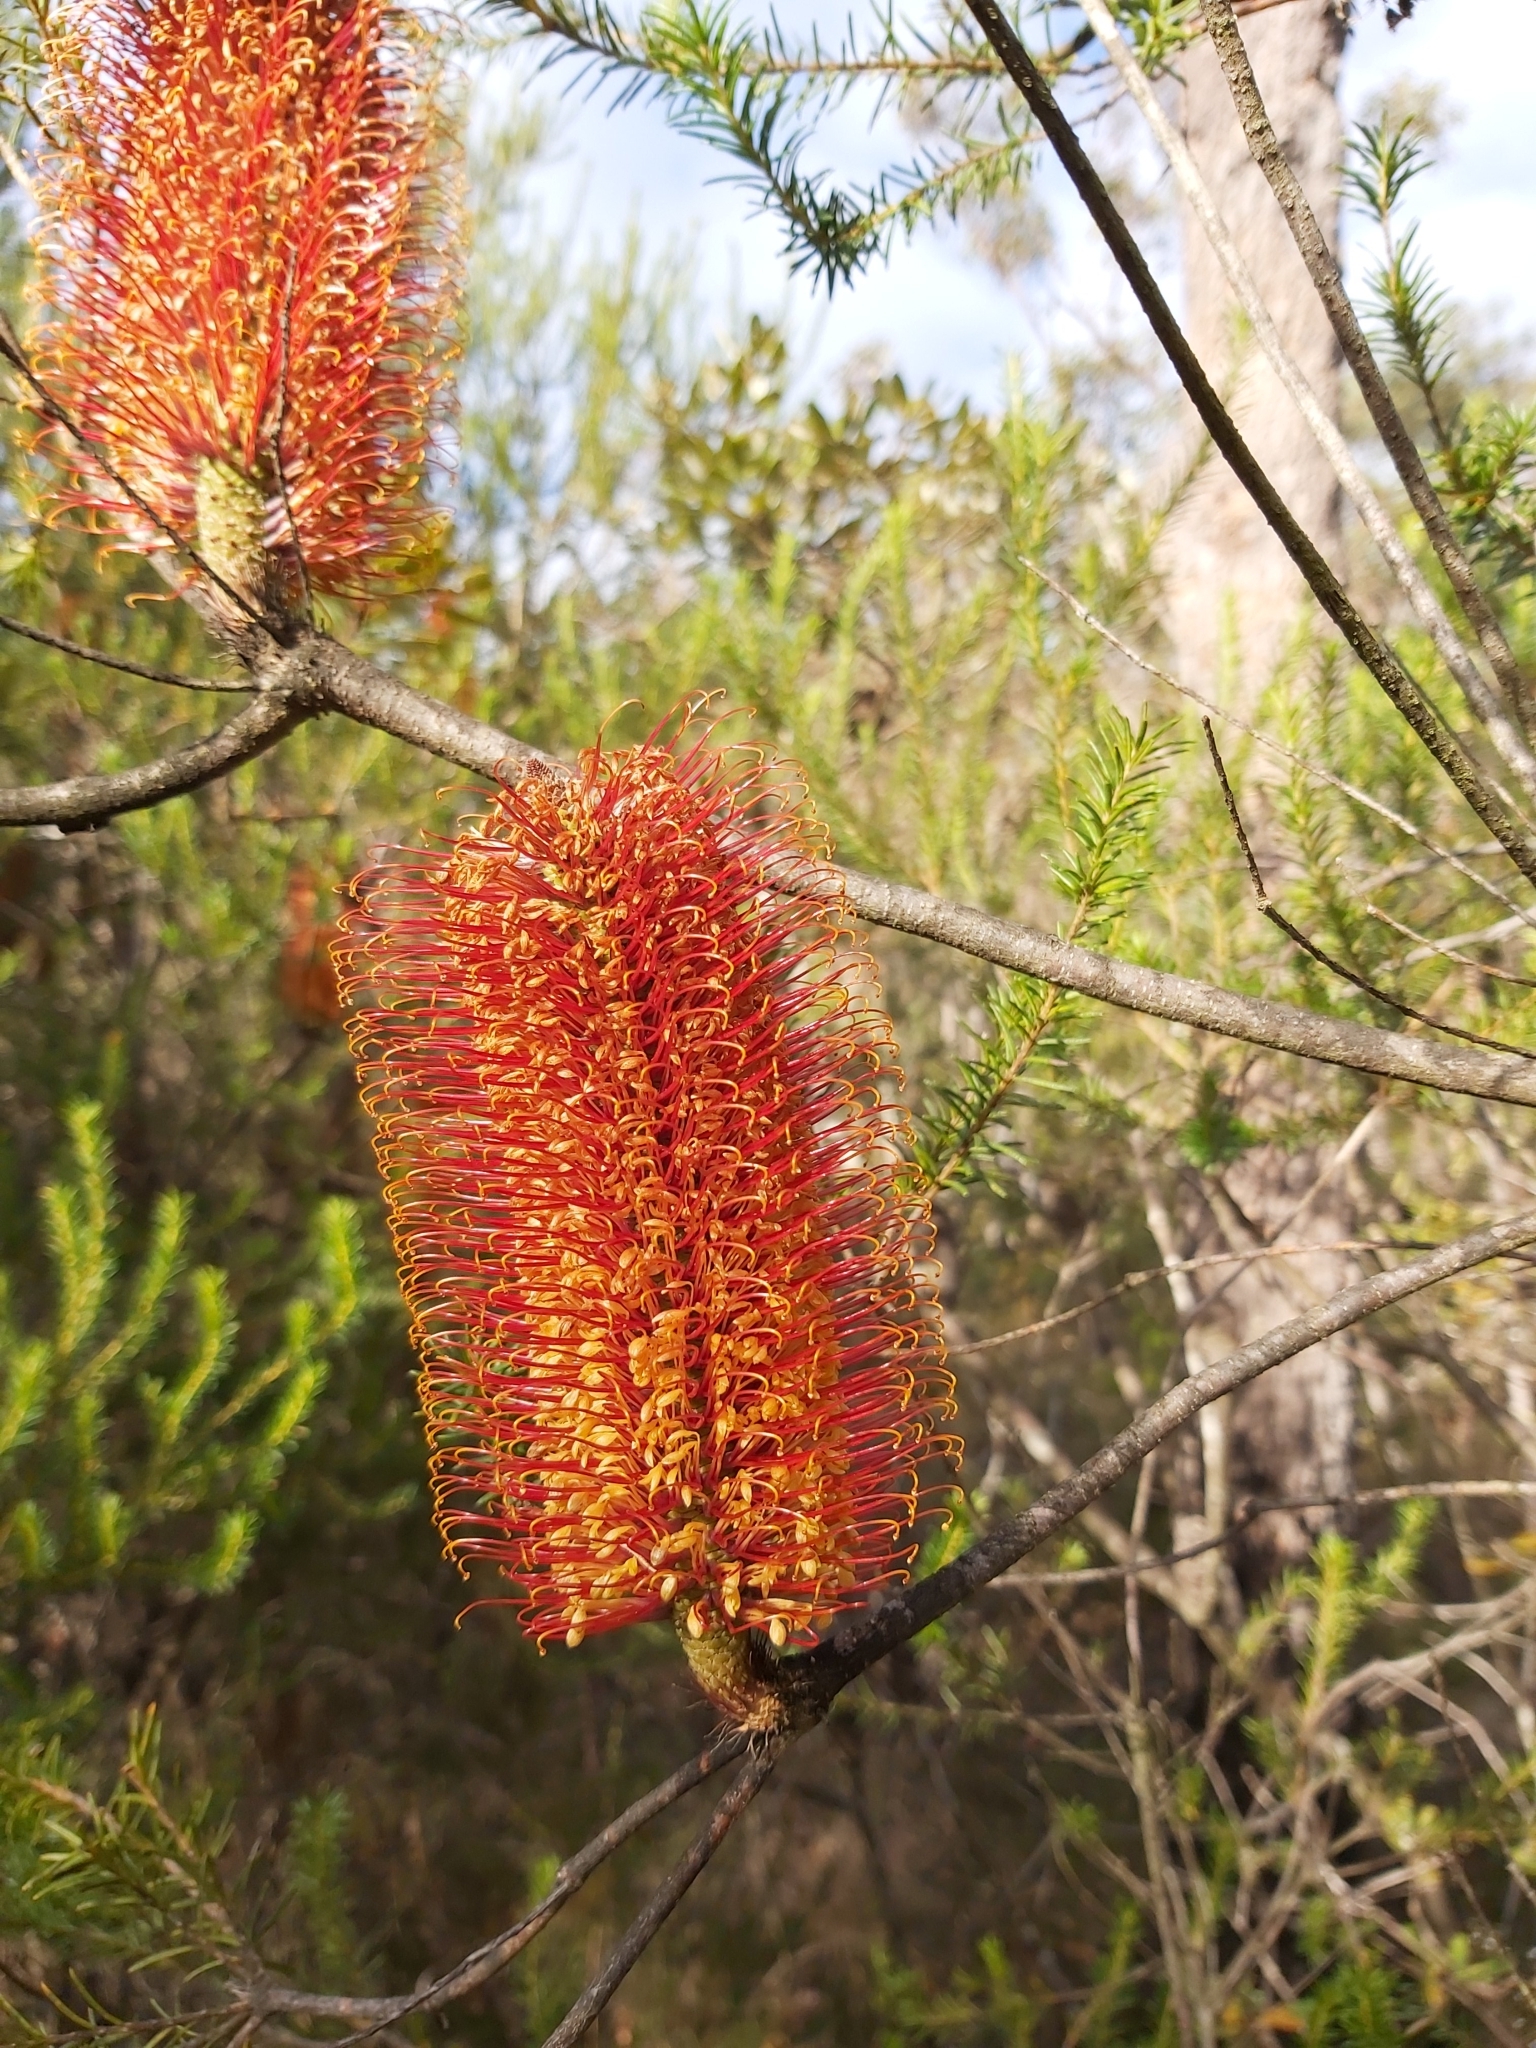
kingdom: Plantae
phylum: Tracheophyta
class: Magnoliopsida
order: Proteales
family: Proteaceae
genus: Banksia
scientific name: Banksia ericifolia
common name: Heath-leaf banksia
